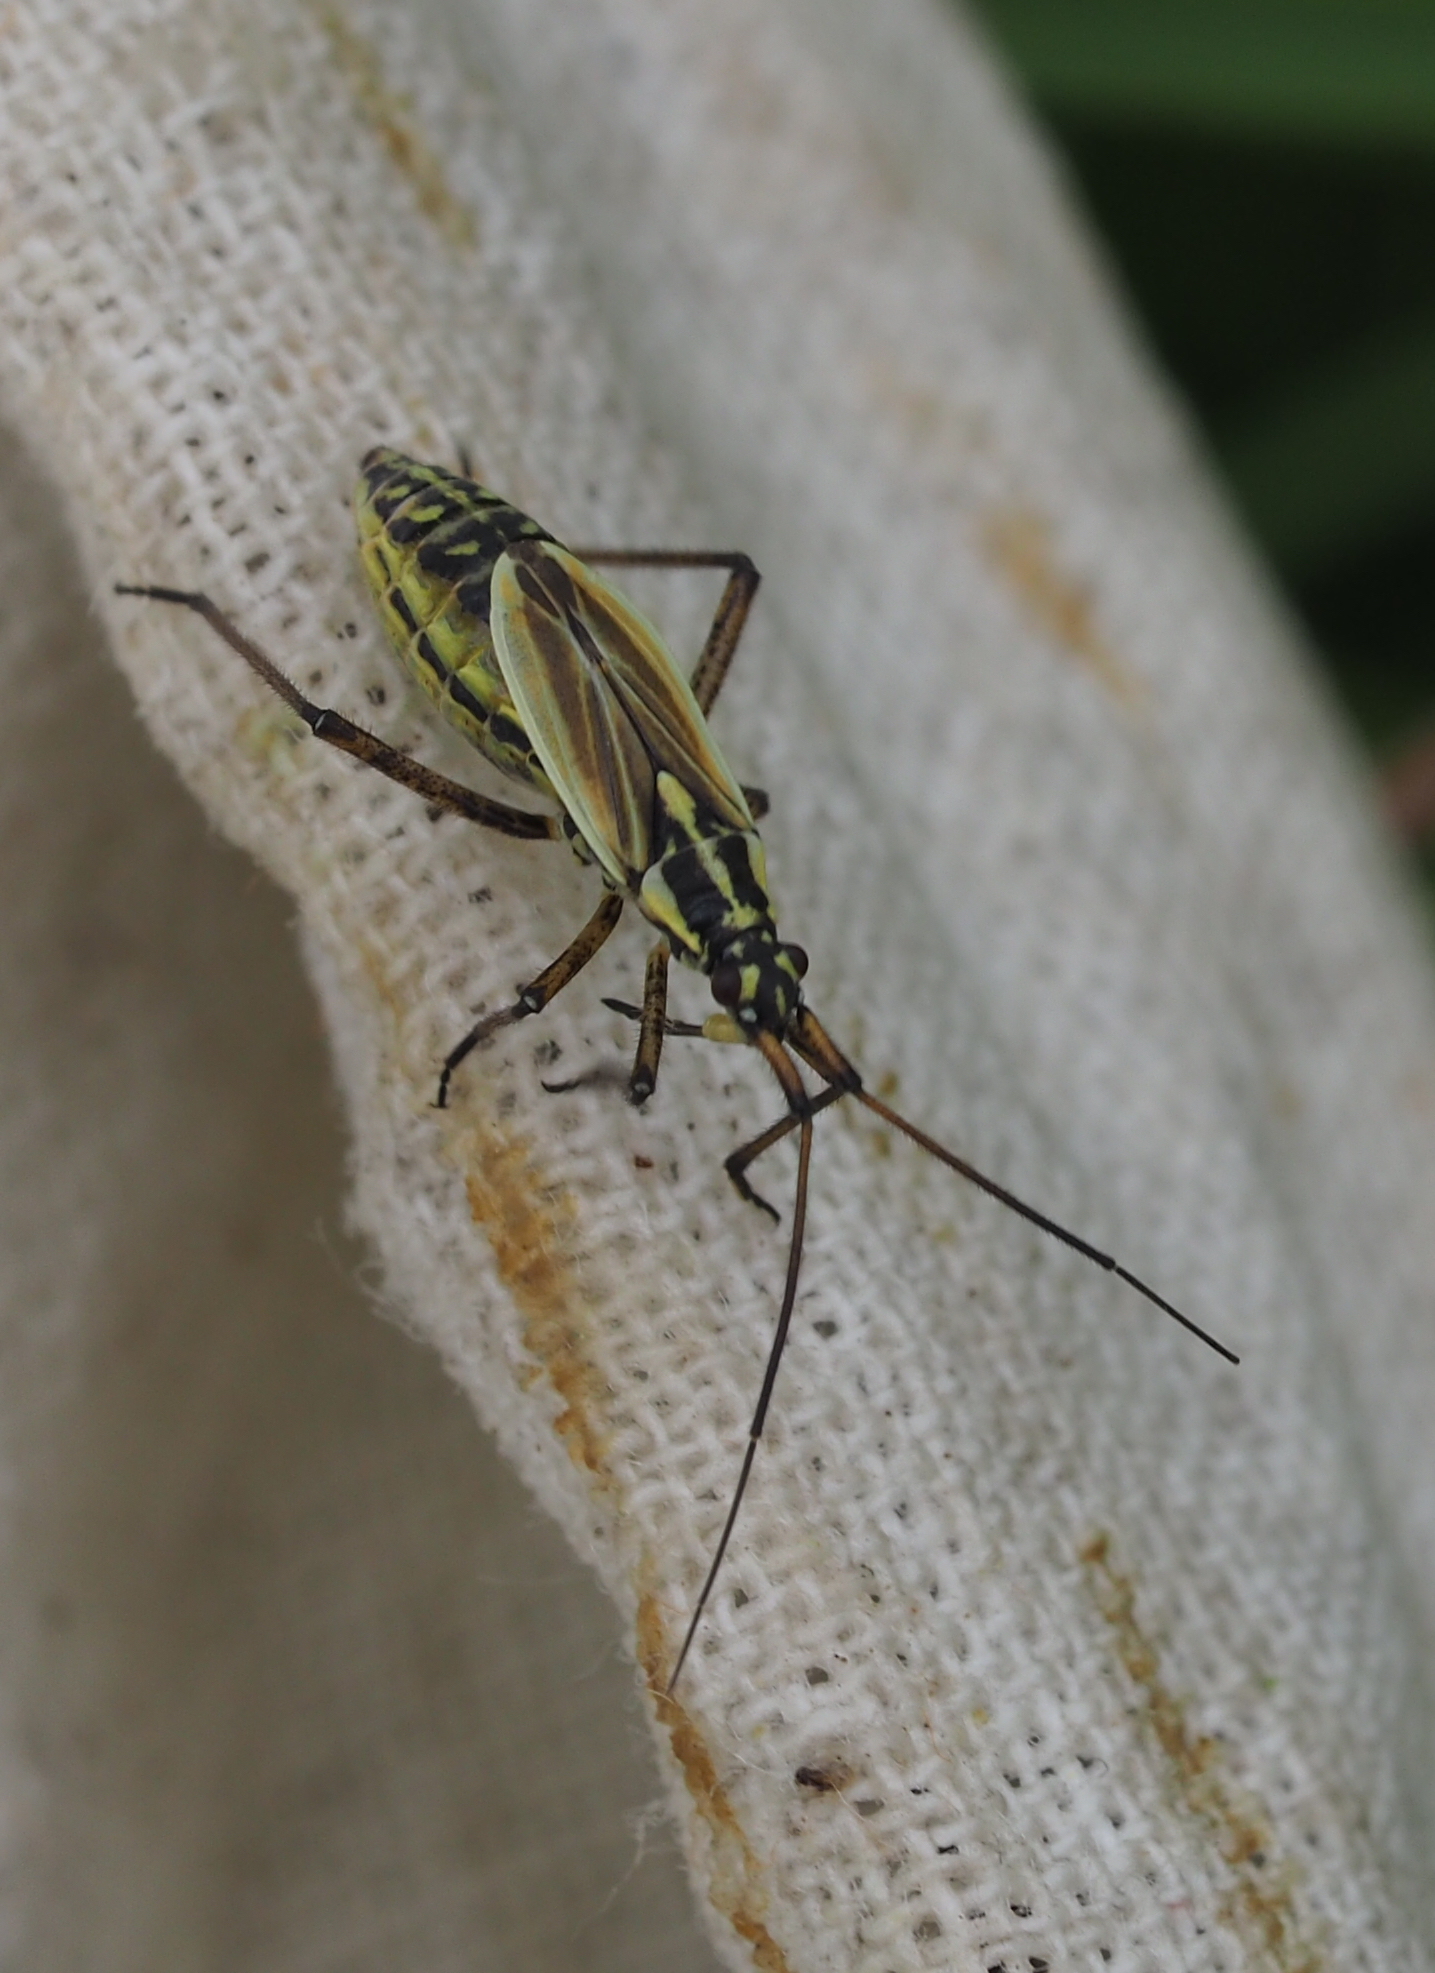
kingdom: Animalia
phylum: Arthropoda
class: Insecta
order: Hemiptera
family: Miridae
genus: Leptopterna
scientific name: Leptopterna dolabrata
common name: Meadow plant bug
